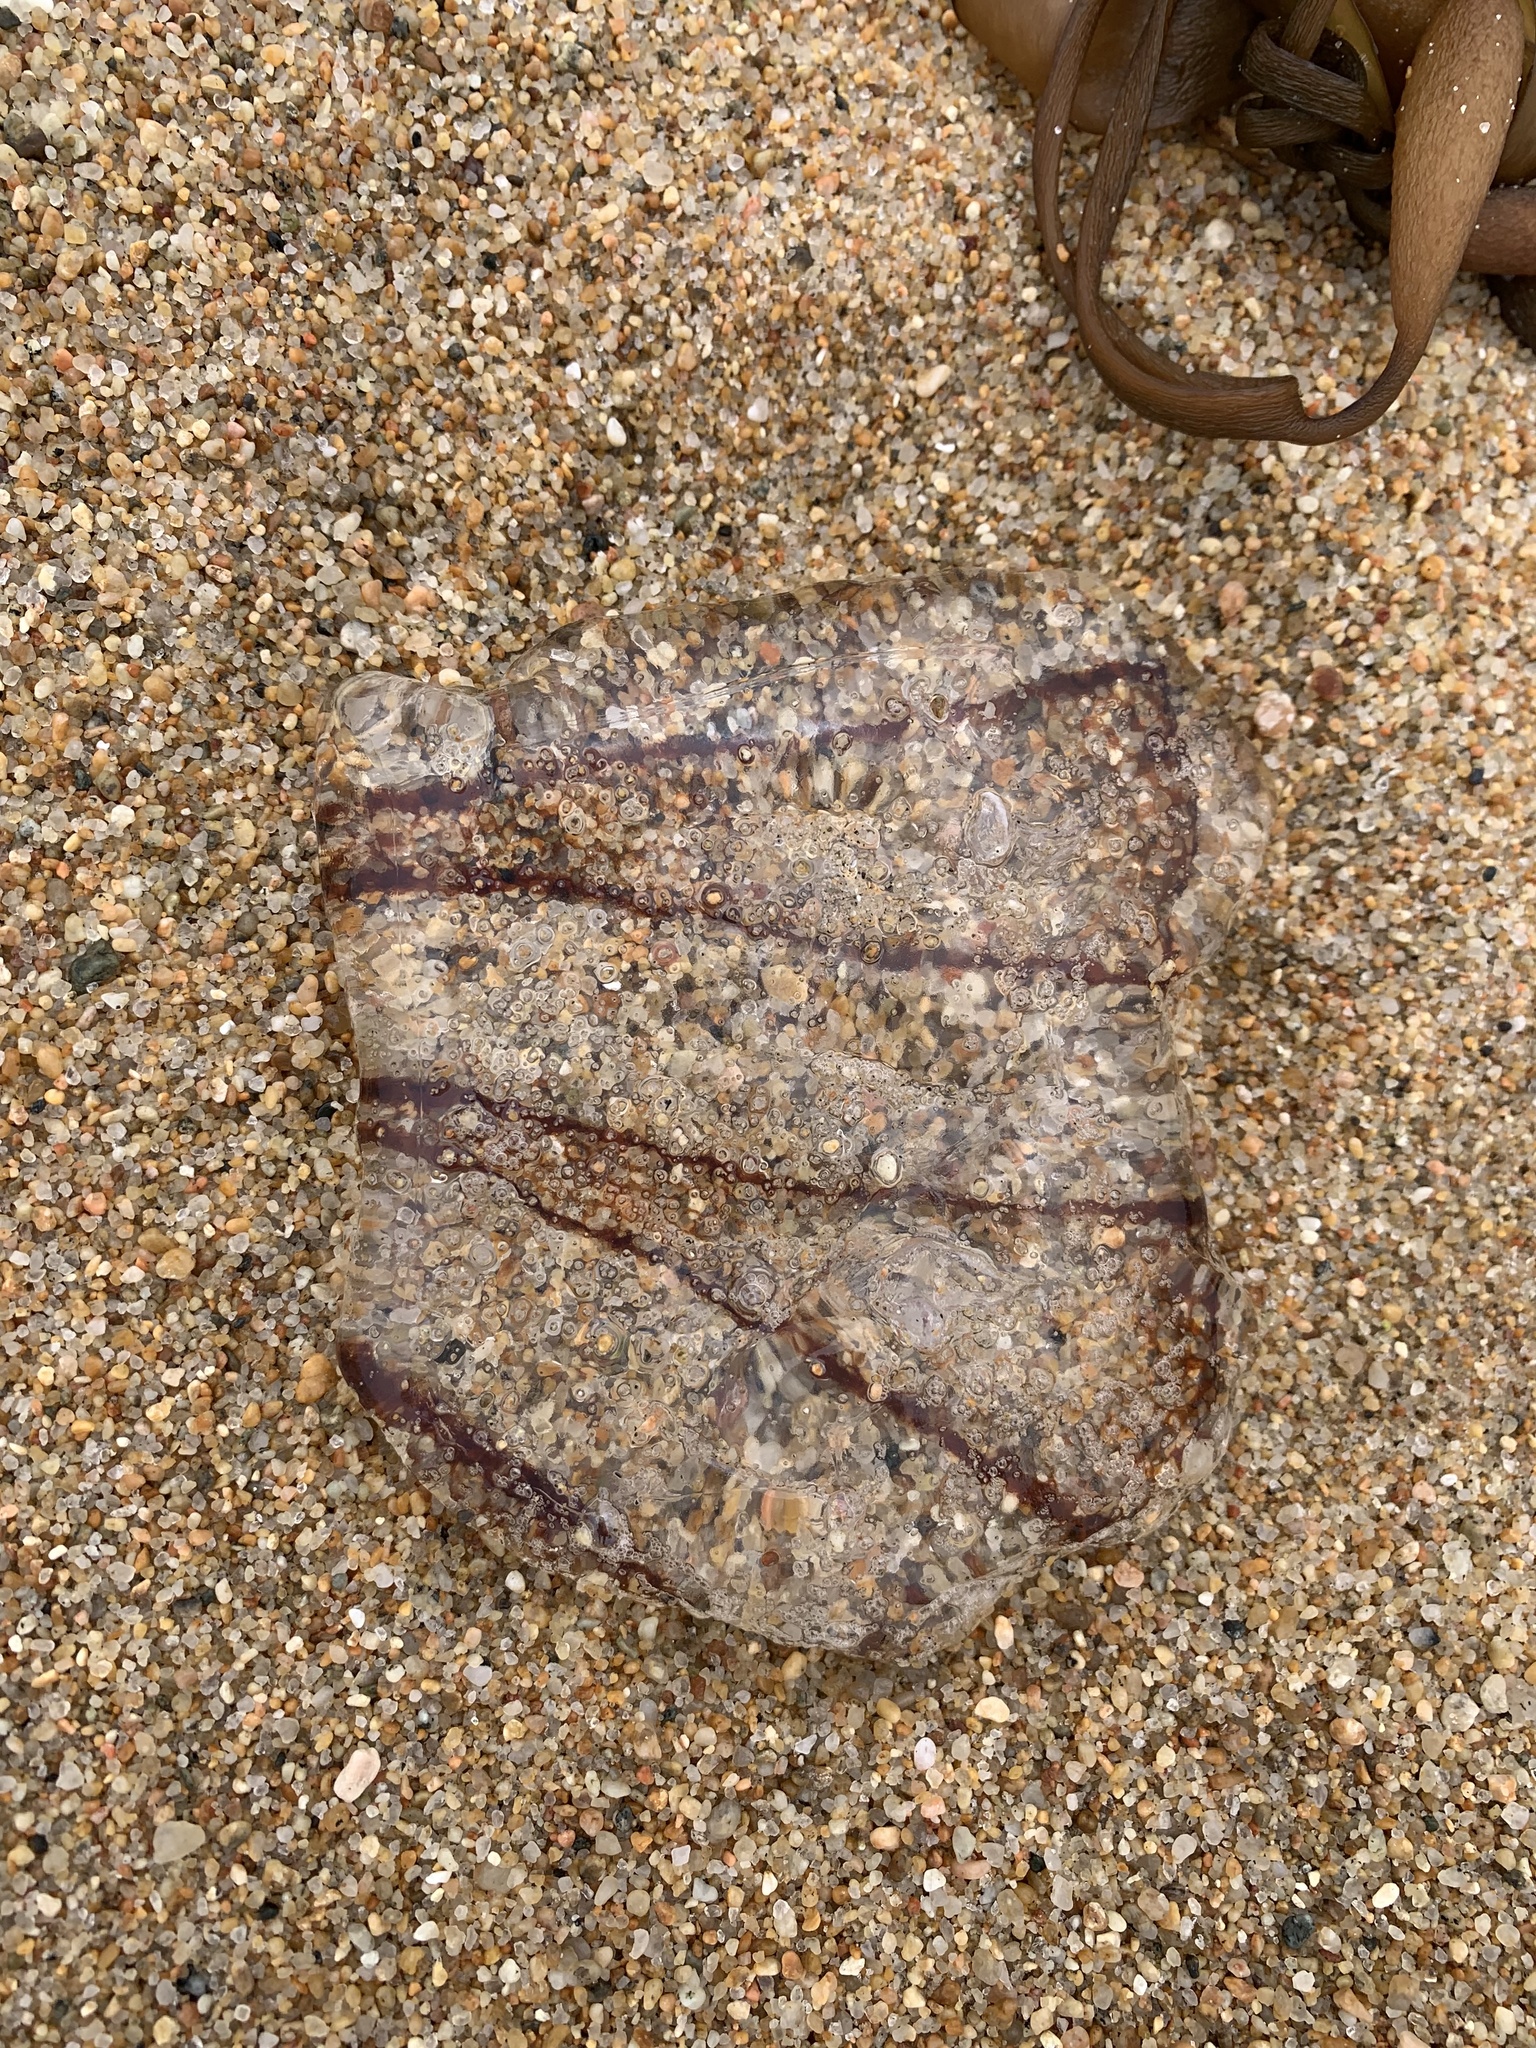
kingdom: Animalia
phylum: Cnidaria
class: Scyphozoa
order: Semaeostomeae
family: Pelagiidae
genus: Chrysaora
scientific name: Chrysaora plocamia
